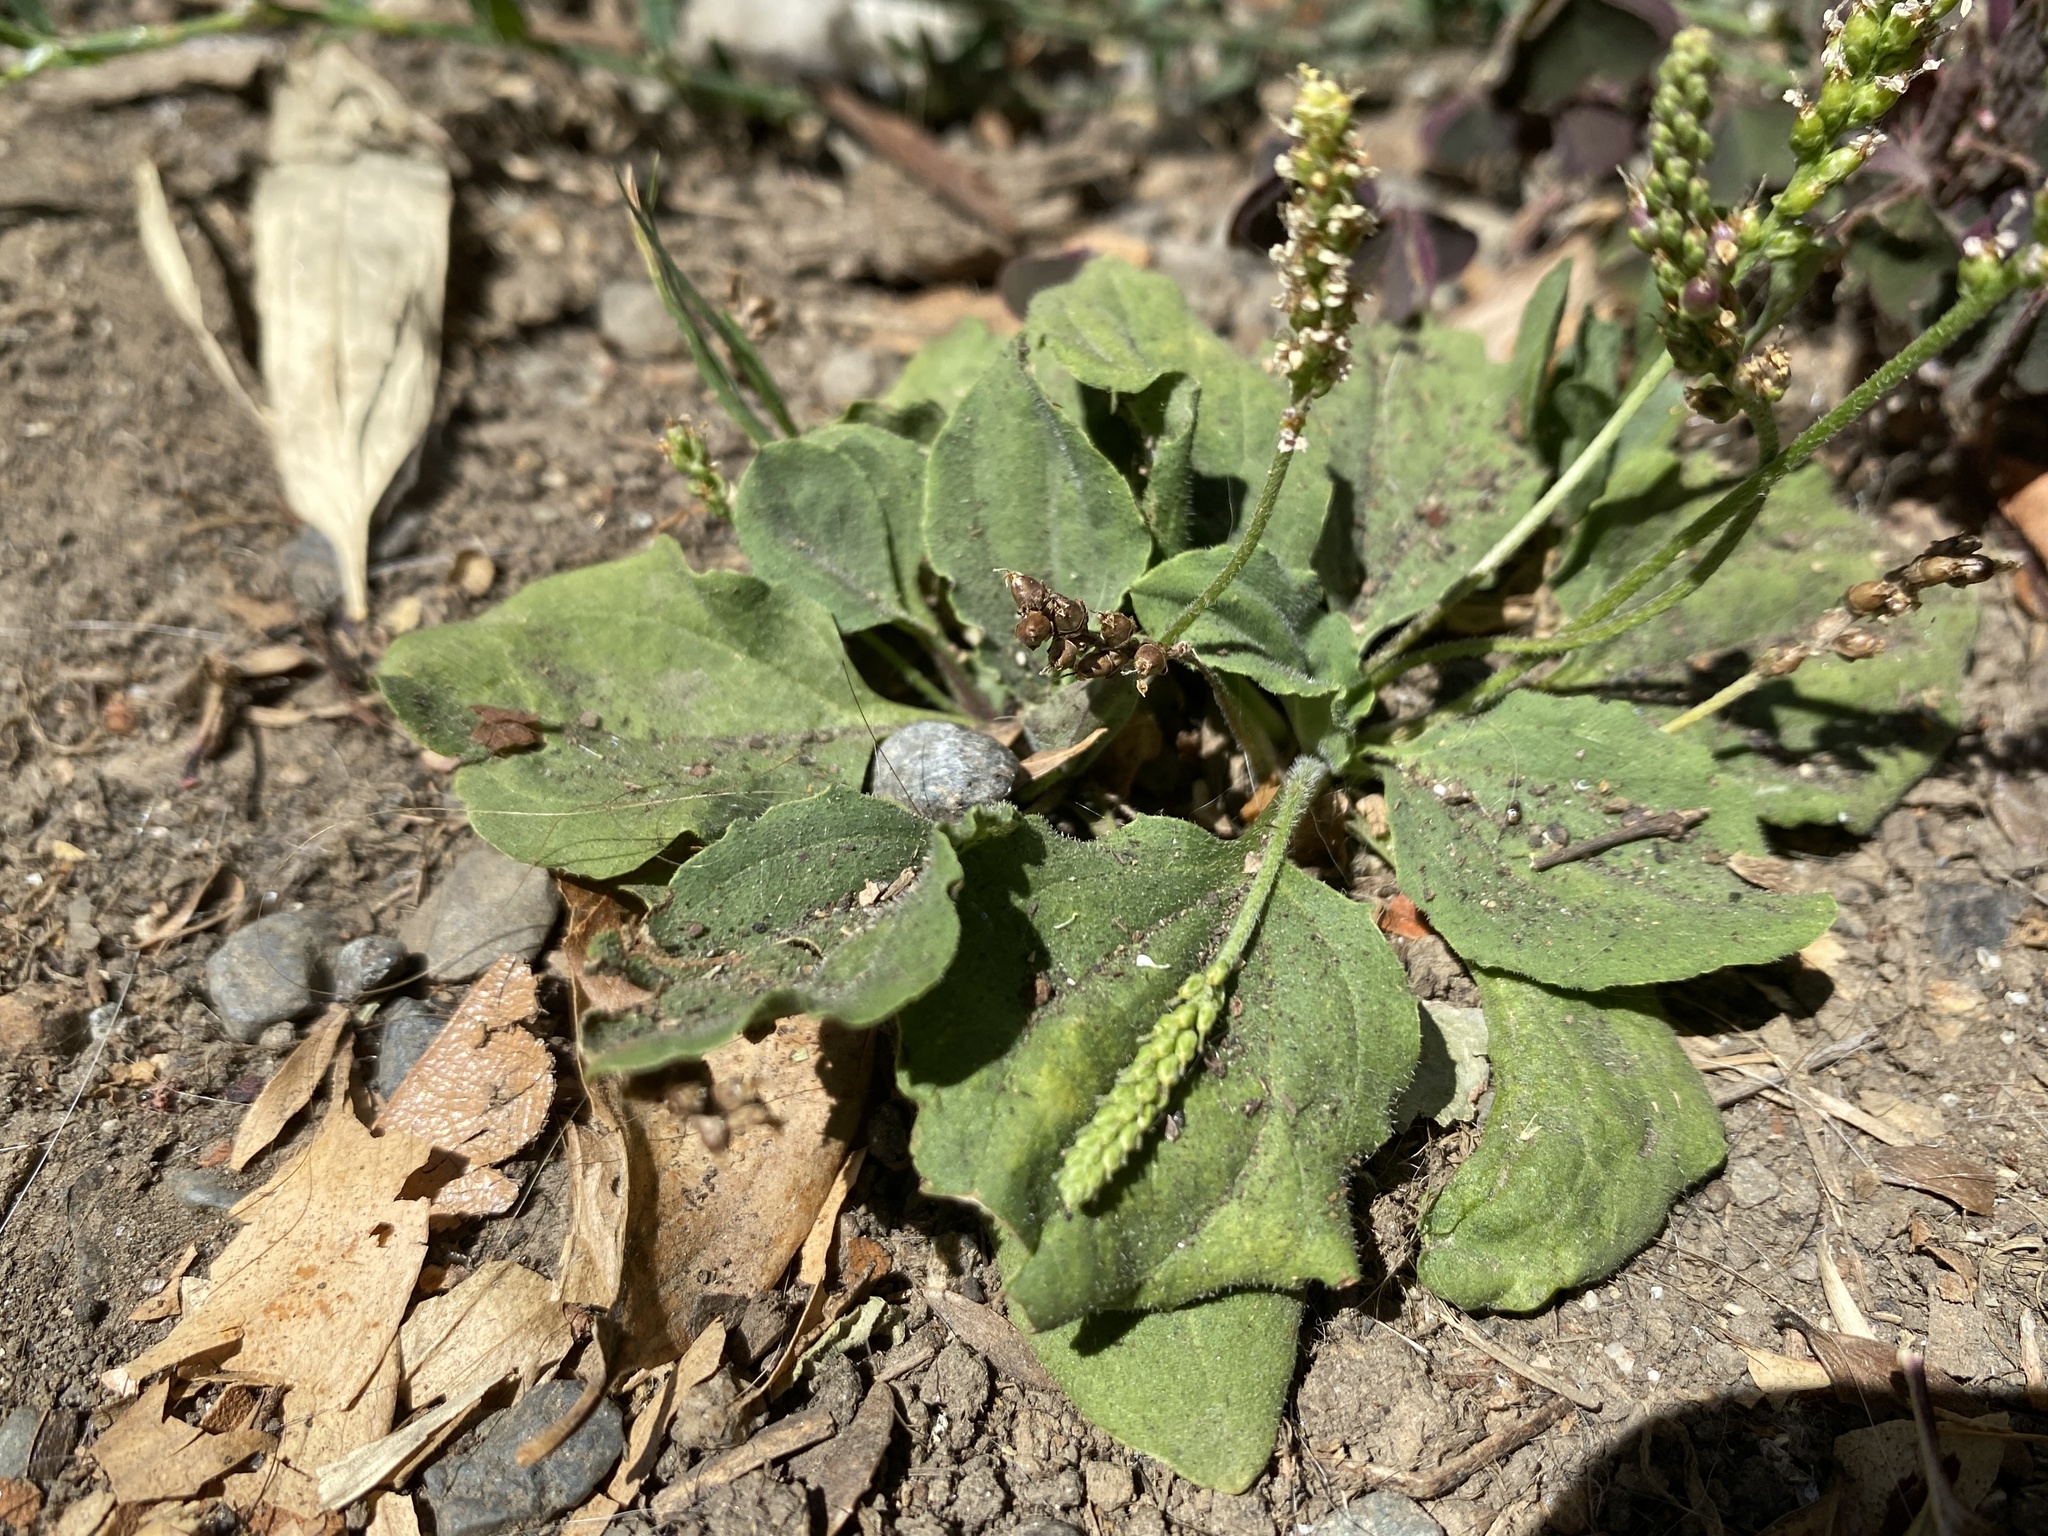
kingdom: Plantae
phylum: Tracheophyta
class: Magnoliopsida
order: Lamiales
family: Plantaginaceae
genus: Plantago
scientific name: Plantago major
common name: Common plantain
